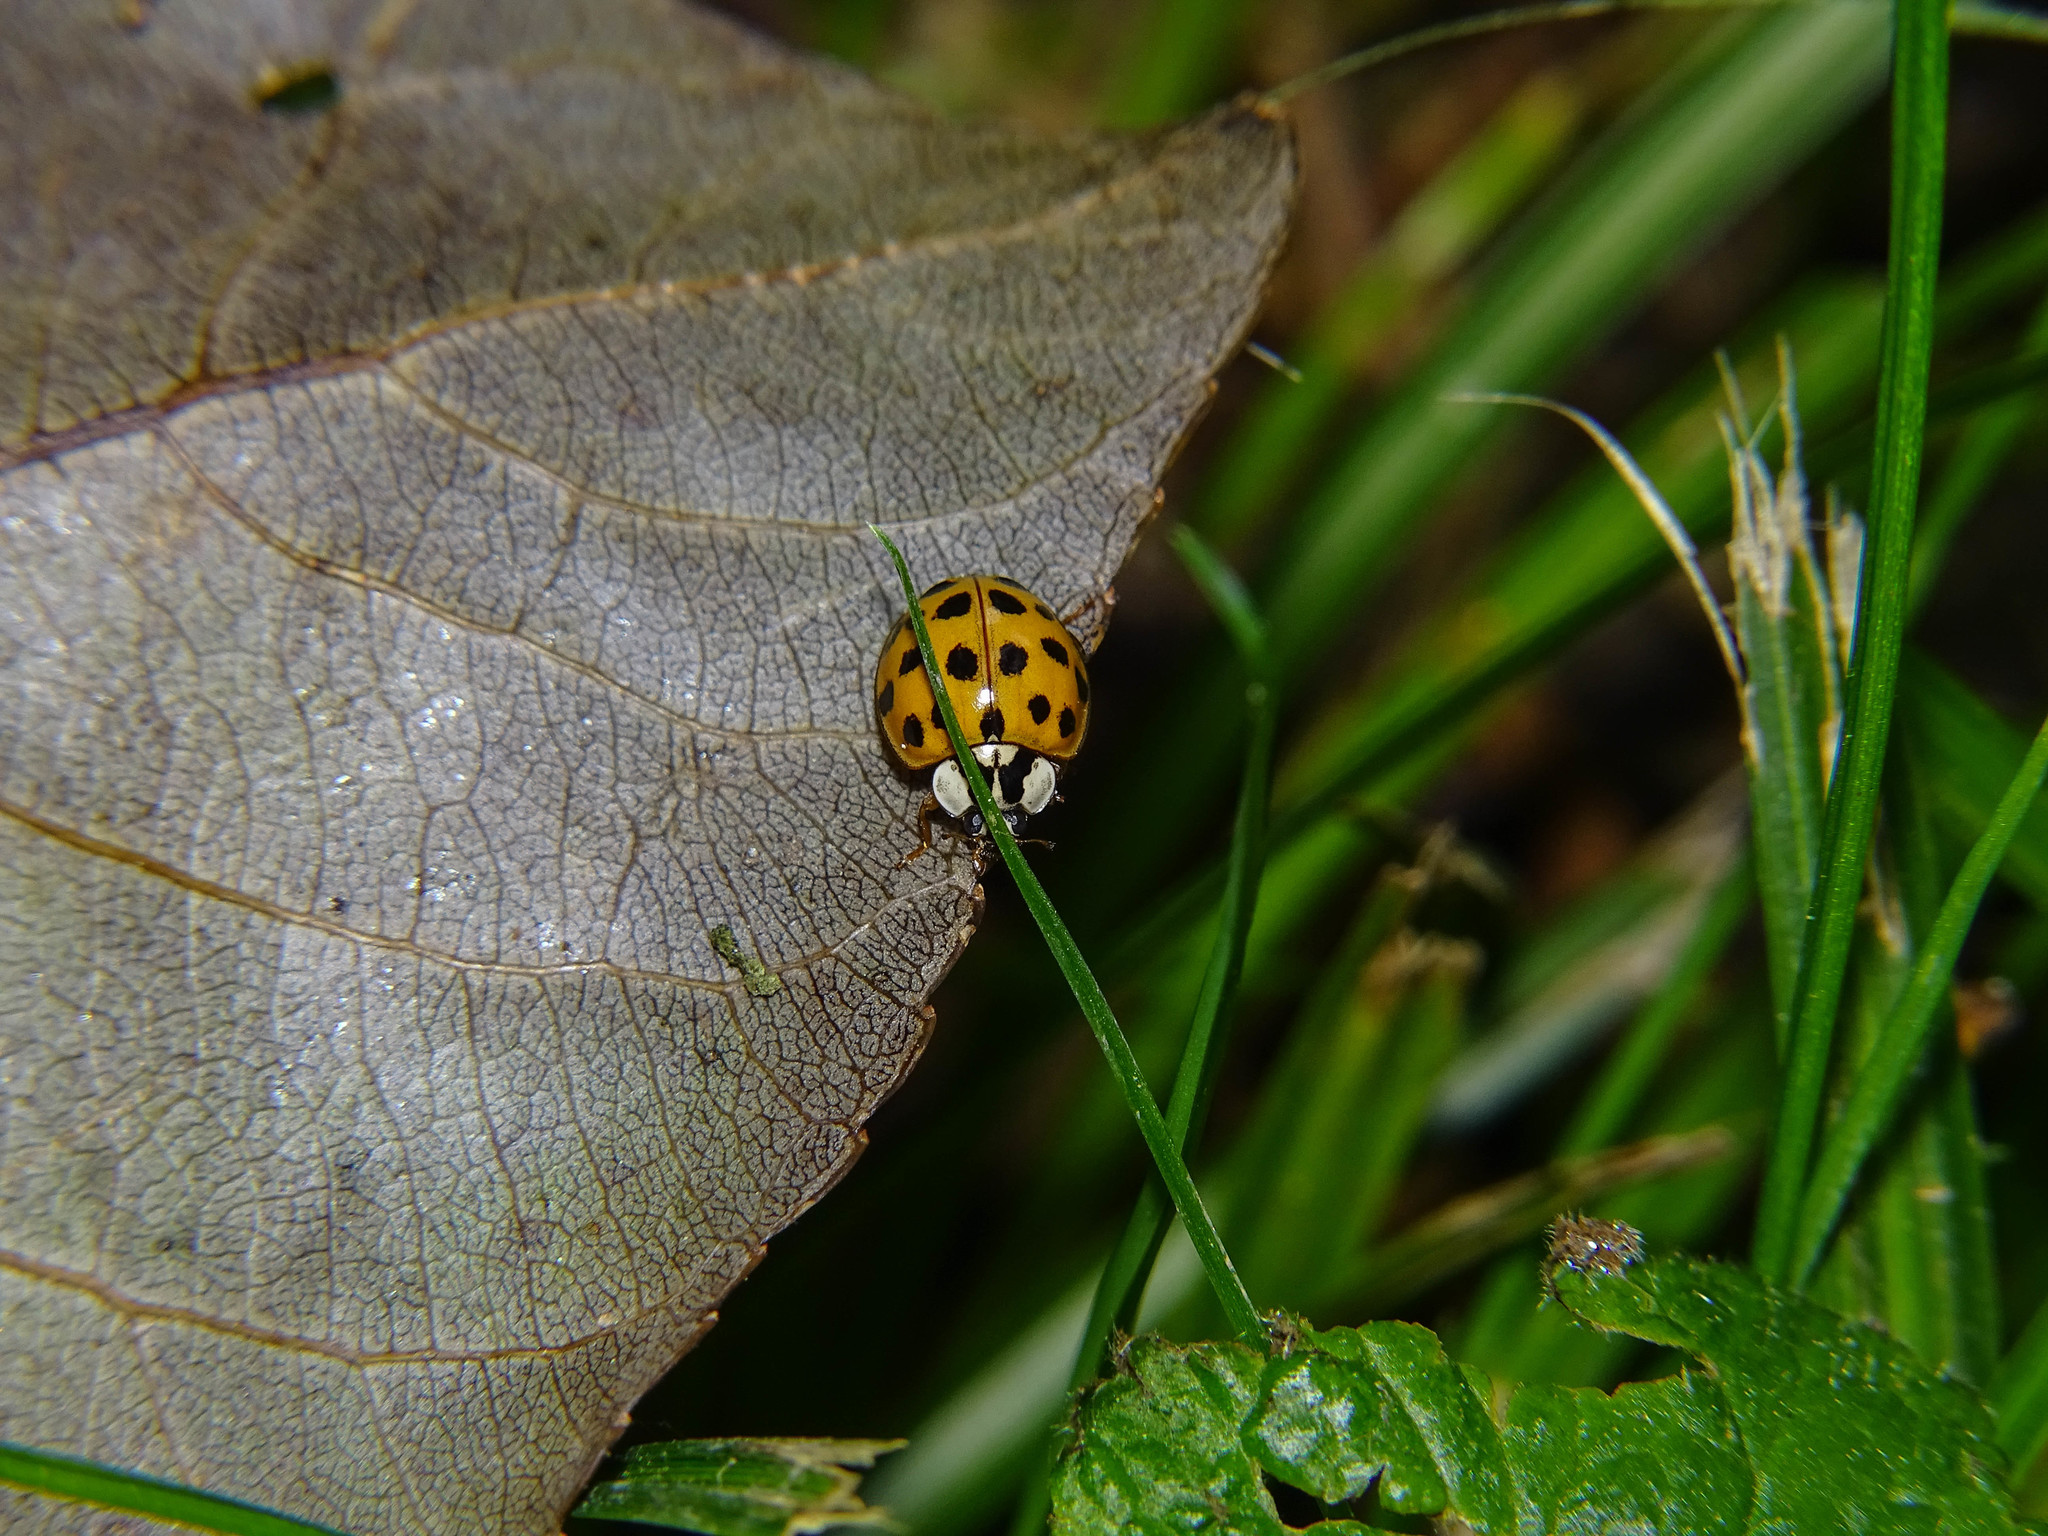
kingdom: Animalia
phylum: Arthropoda
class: Insecta
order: Coleoptera
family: Coccinellidae
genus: Harmonia
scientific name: Harmonia axyridis
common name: Harlequin ladybird
